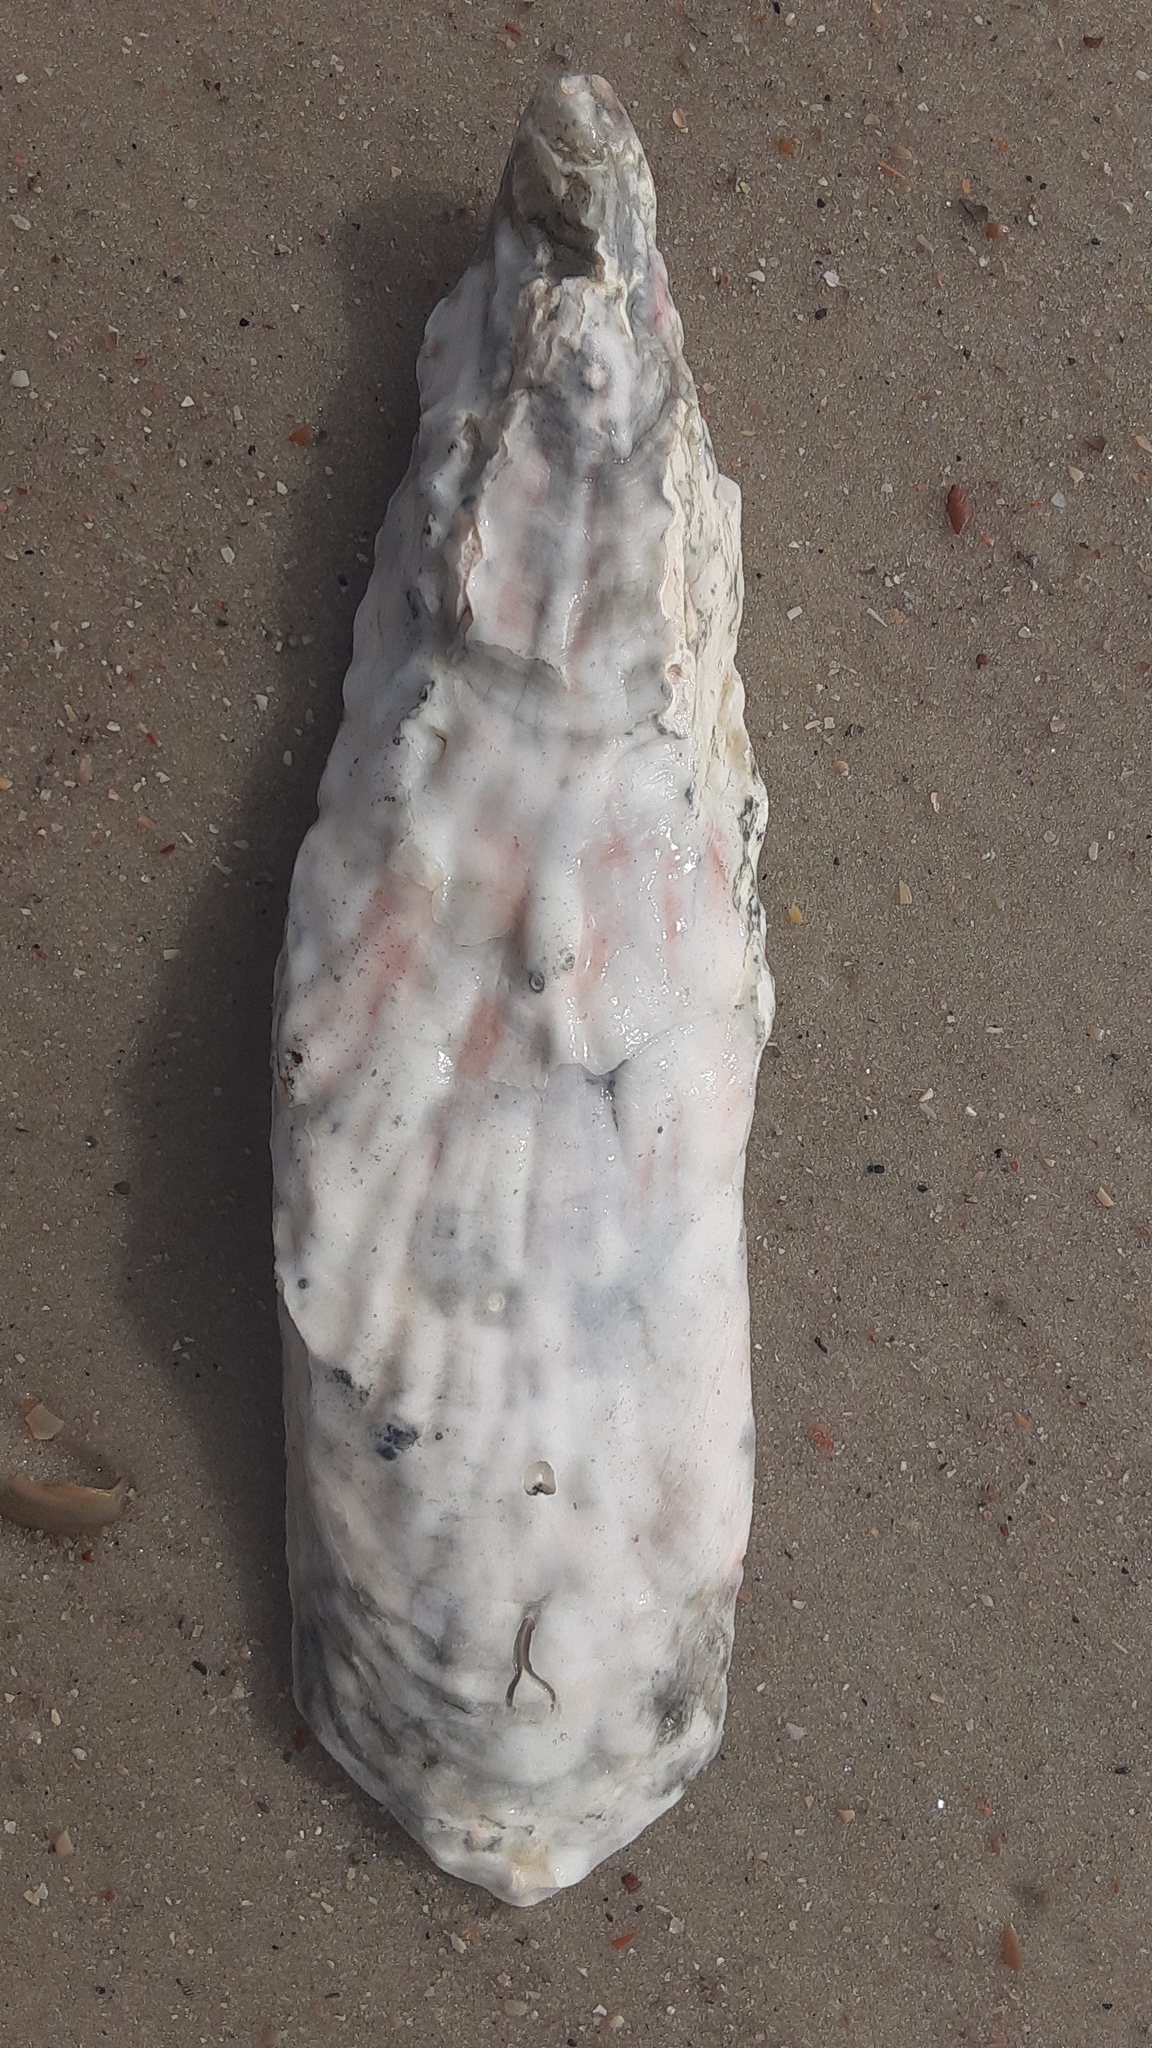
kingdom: Animalia
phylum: Mollusca
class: Bivalvia
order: Ostreida
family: Ostreidae
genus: Crassostrea
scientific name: Crassostrea virginica
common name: American oyster
